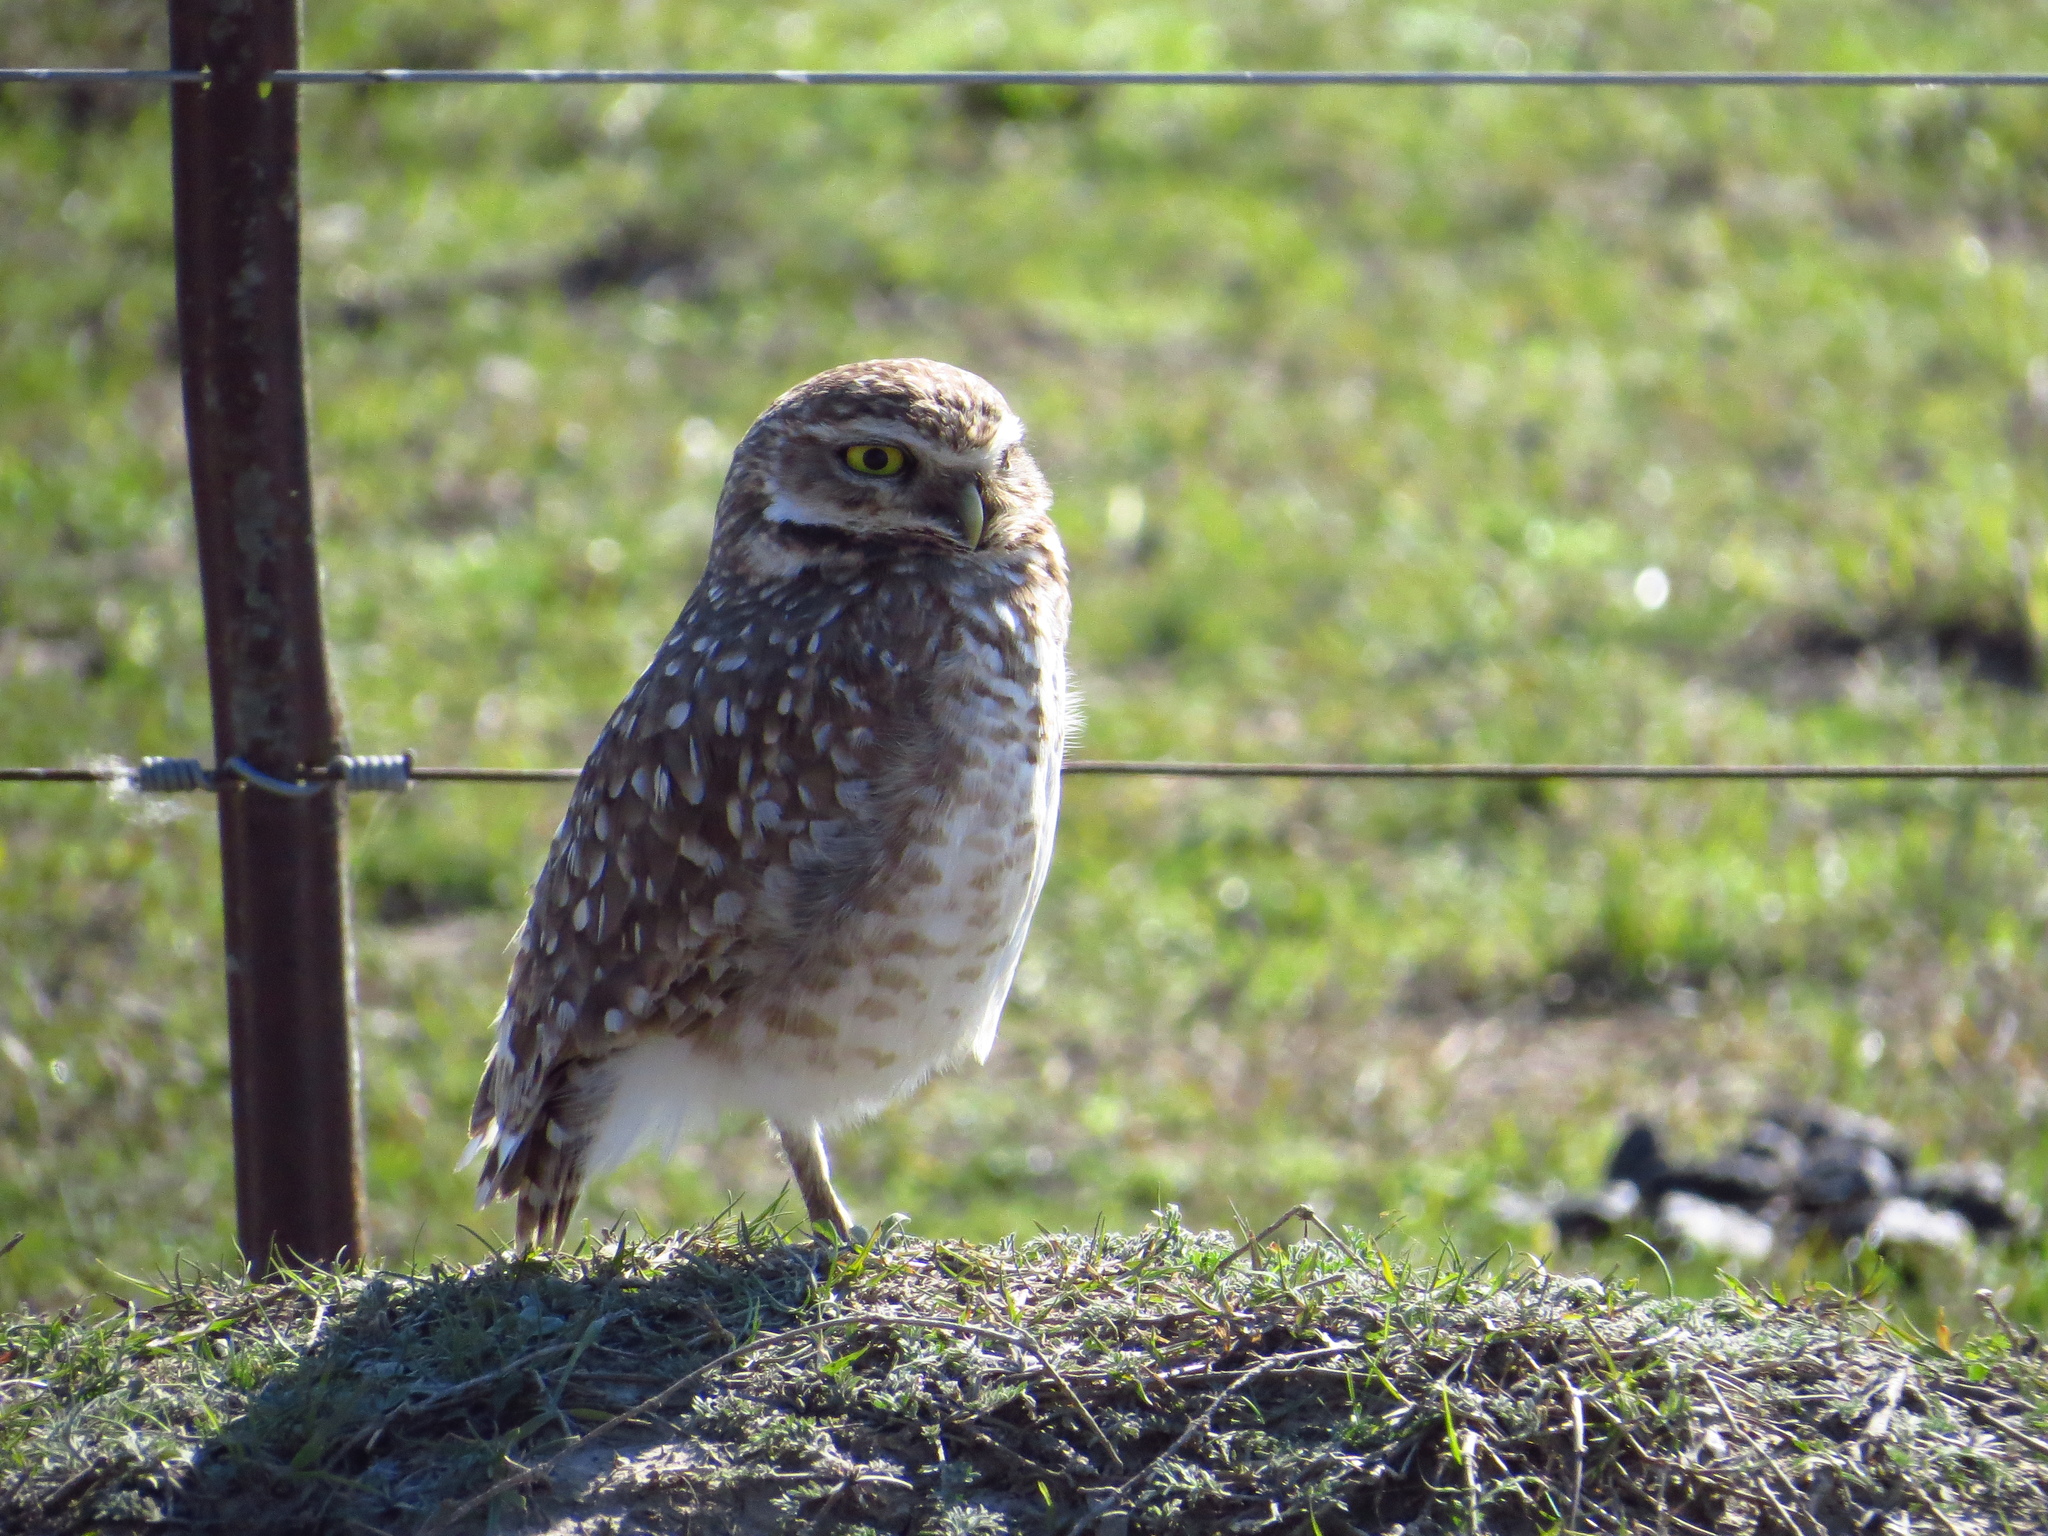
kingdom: Animalia
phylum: Chordata
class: Aves
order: Strigiformes
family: Strigidae
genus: Athene
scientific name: Athene cunicularia
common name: Burrowing owl
